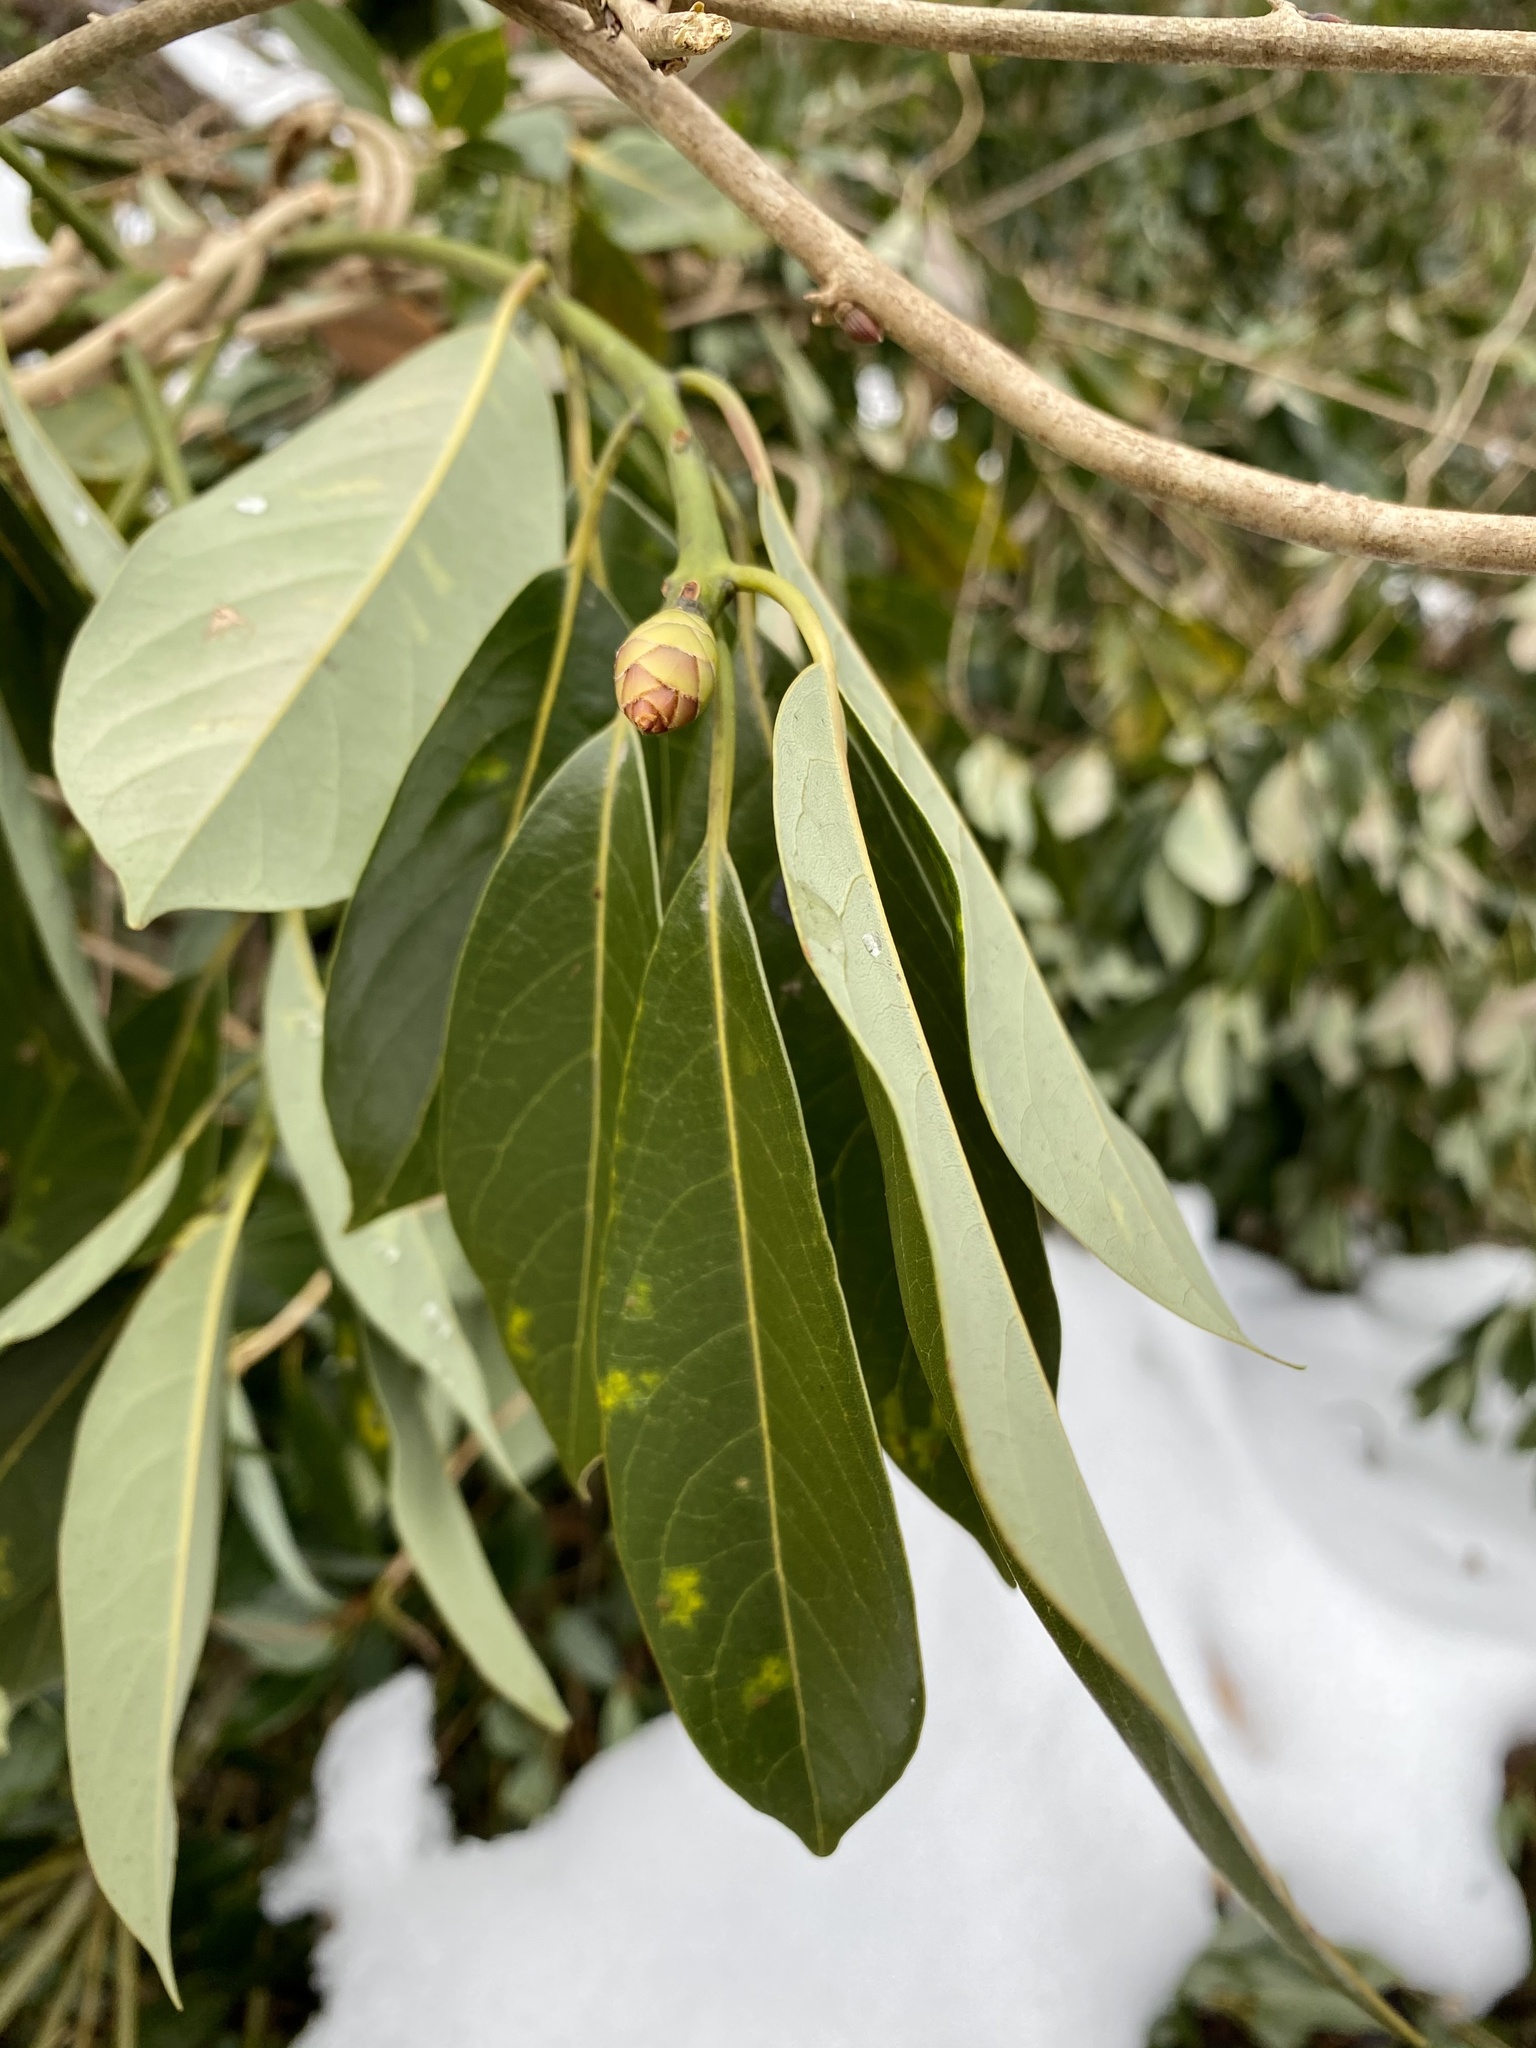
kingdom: Plantae
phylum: Tracheophyta
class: Magnoliopsida
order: Laurales
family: Lauraceae
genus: Machilus
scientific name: Machilus thunbergii
